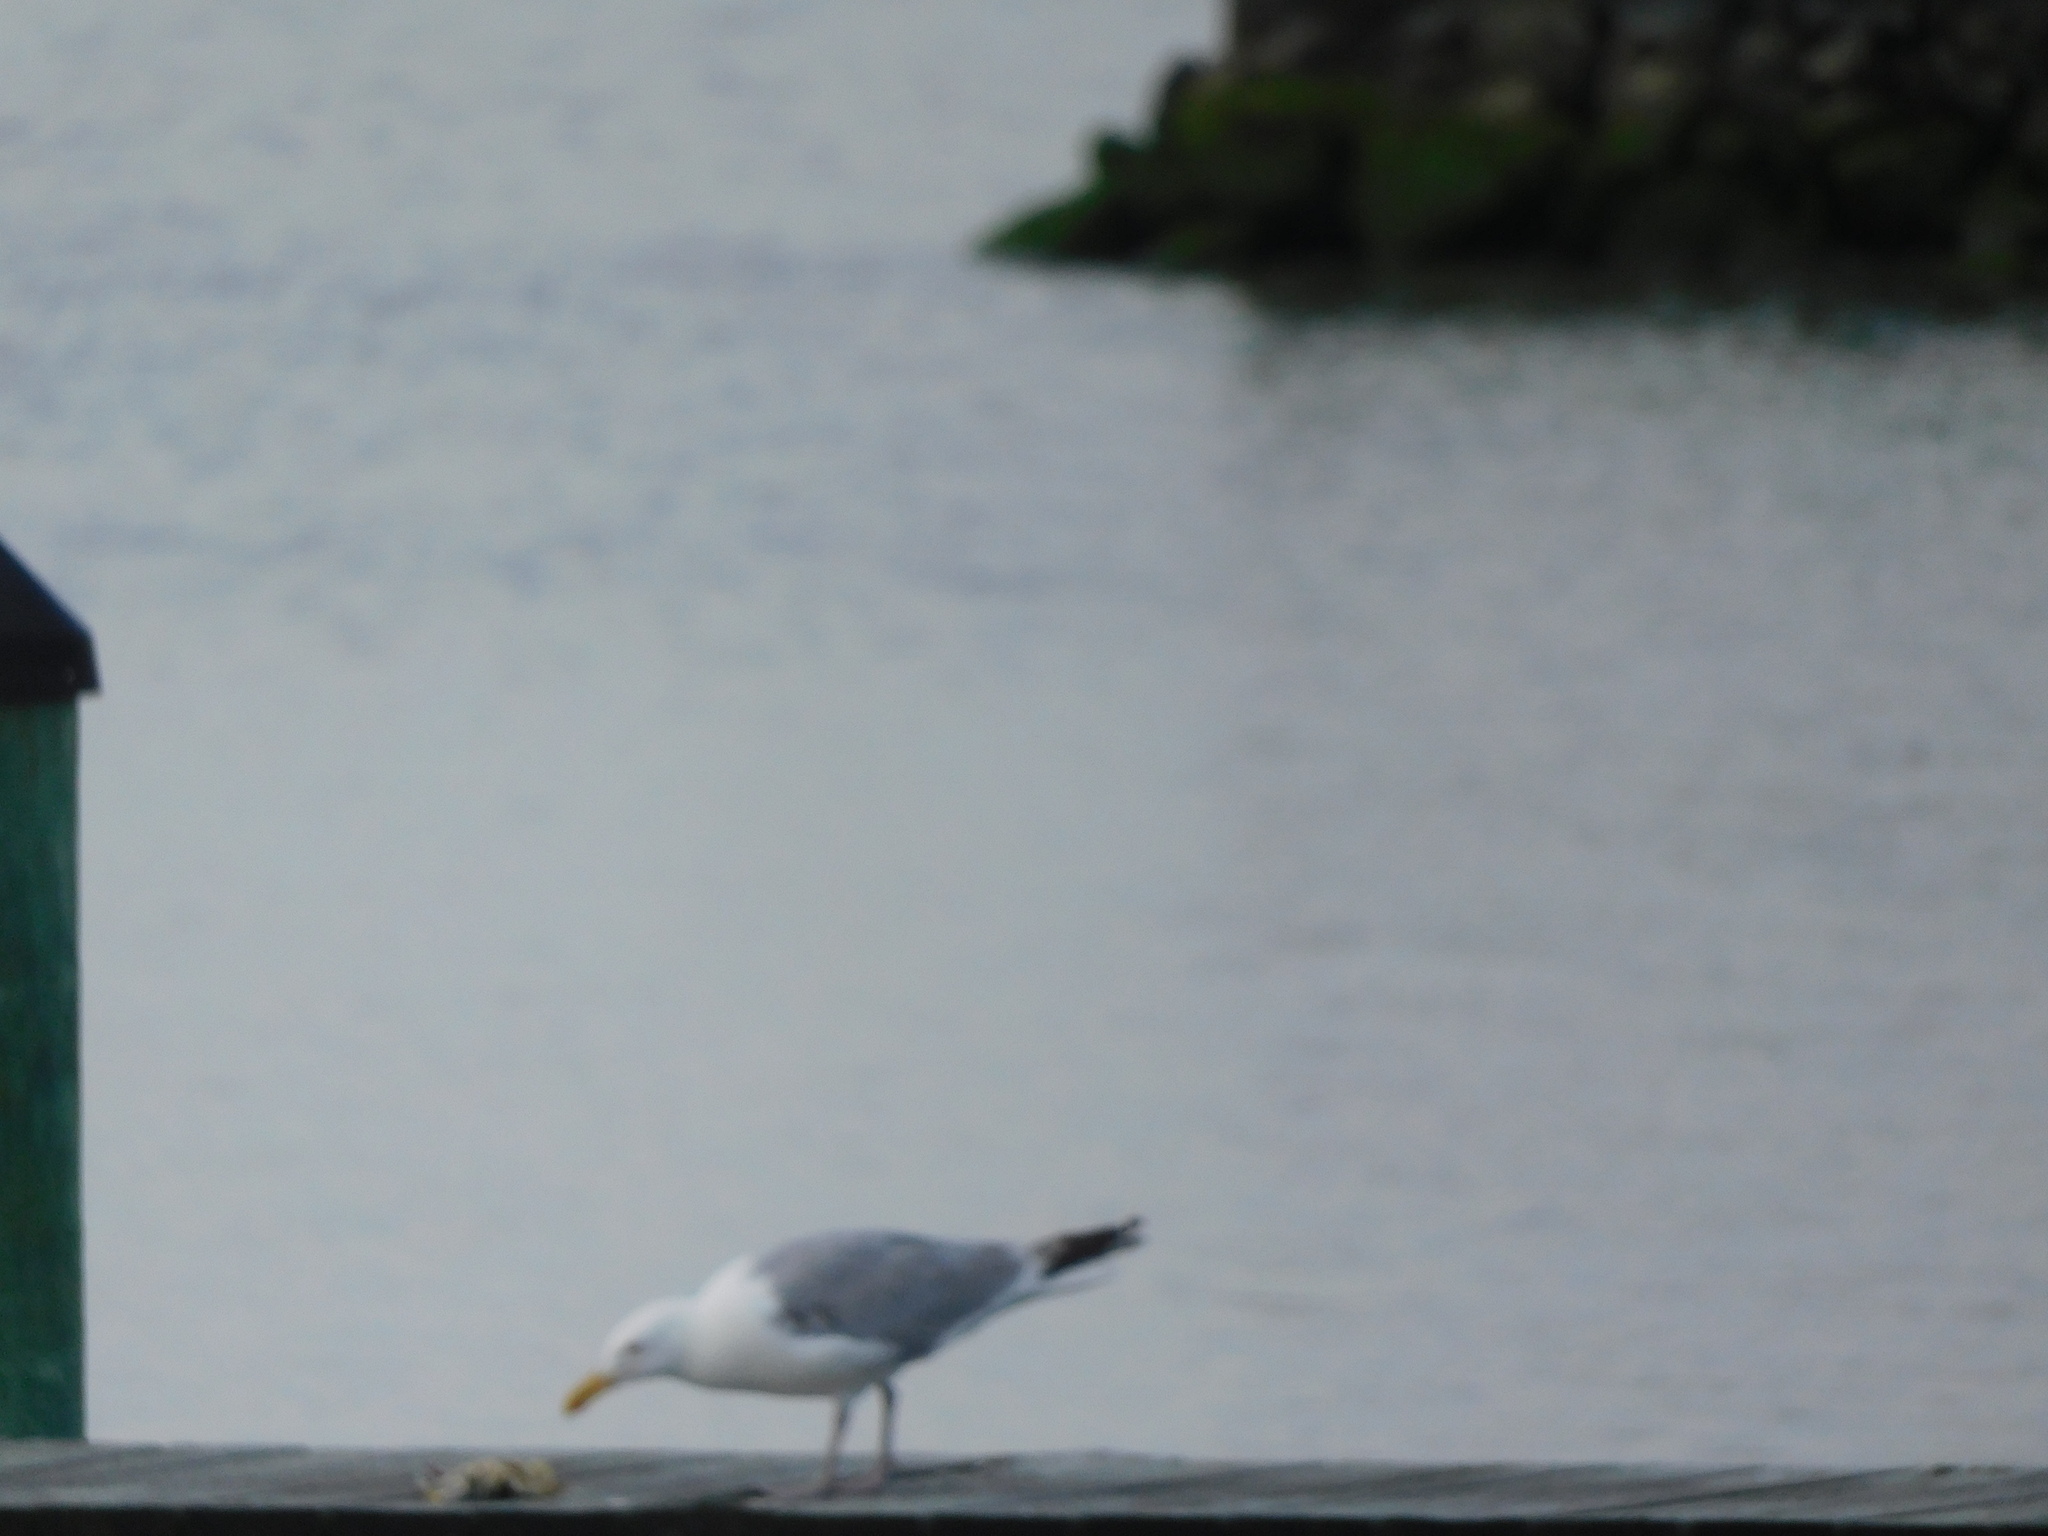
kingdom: Animalia
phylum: Chordata
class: Aves
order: Charadriiformes
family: Laridae
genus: Larus
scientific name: Larus argentatus
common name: Herring gull
